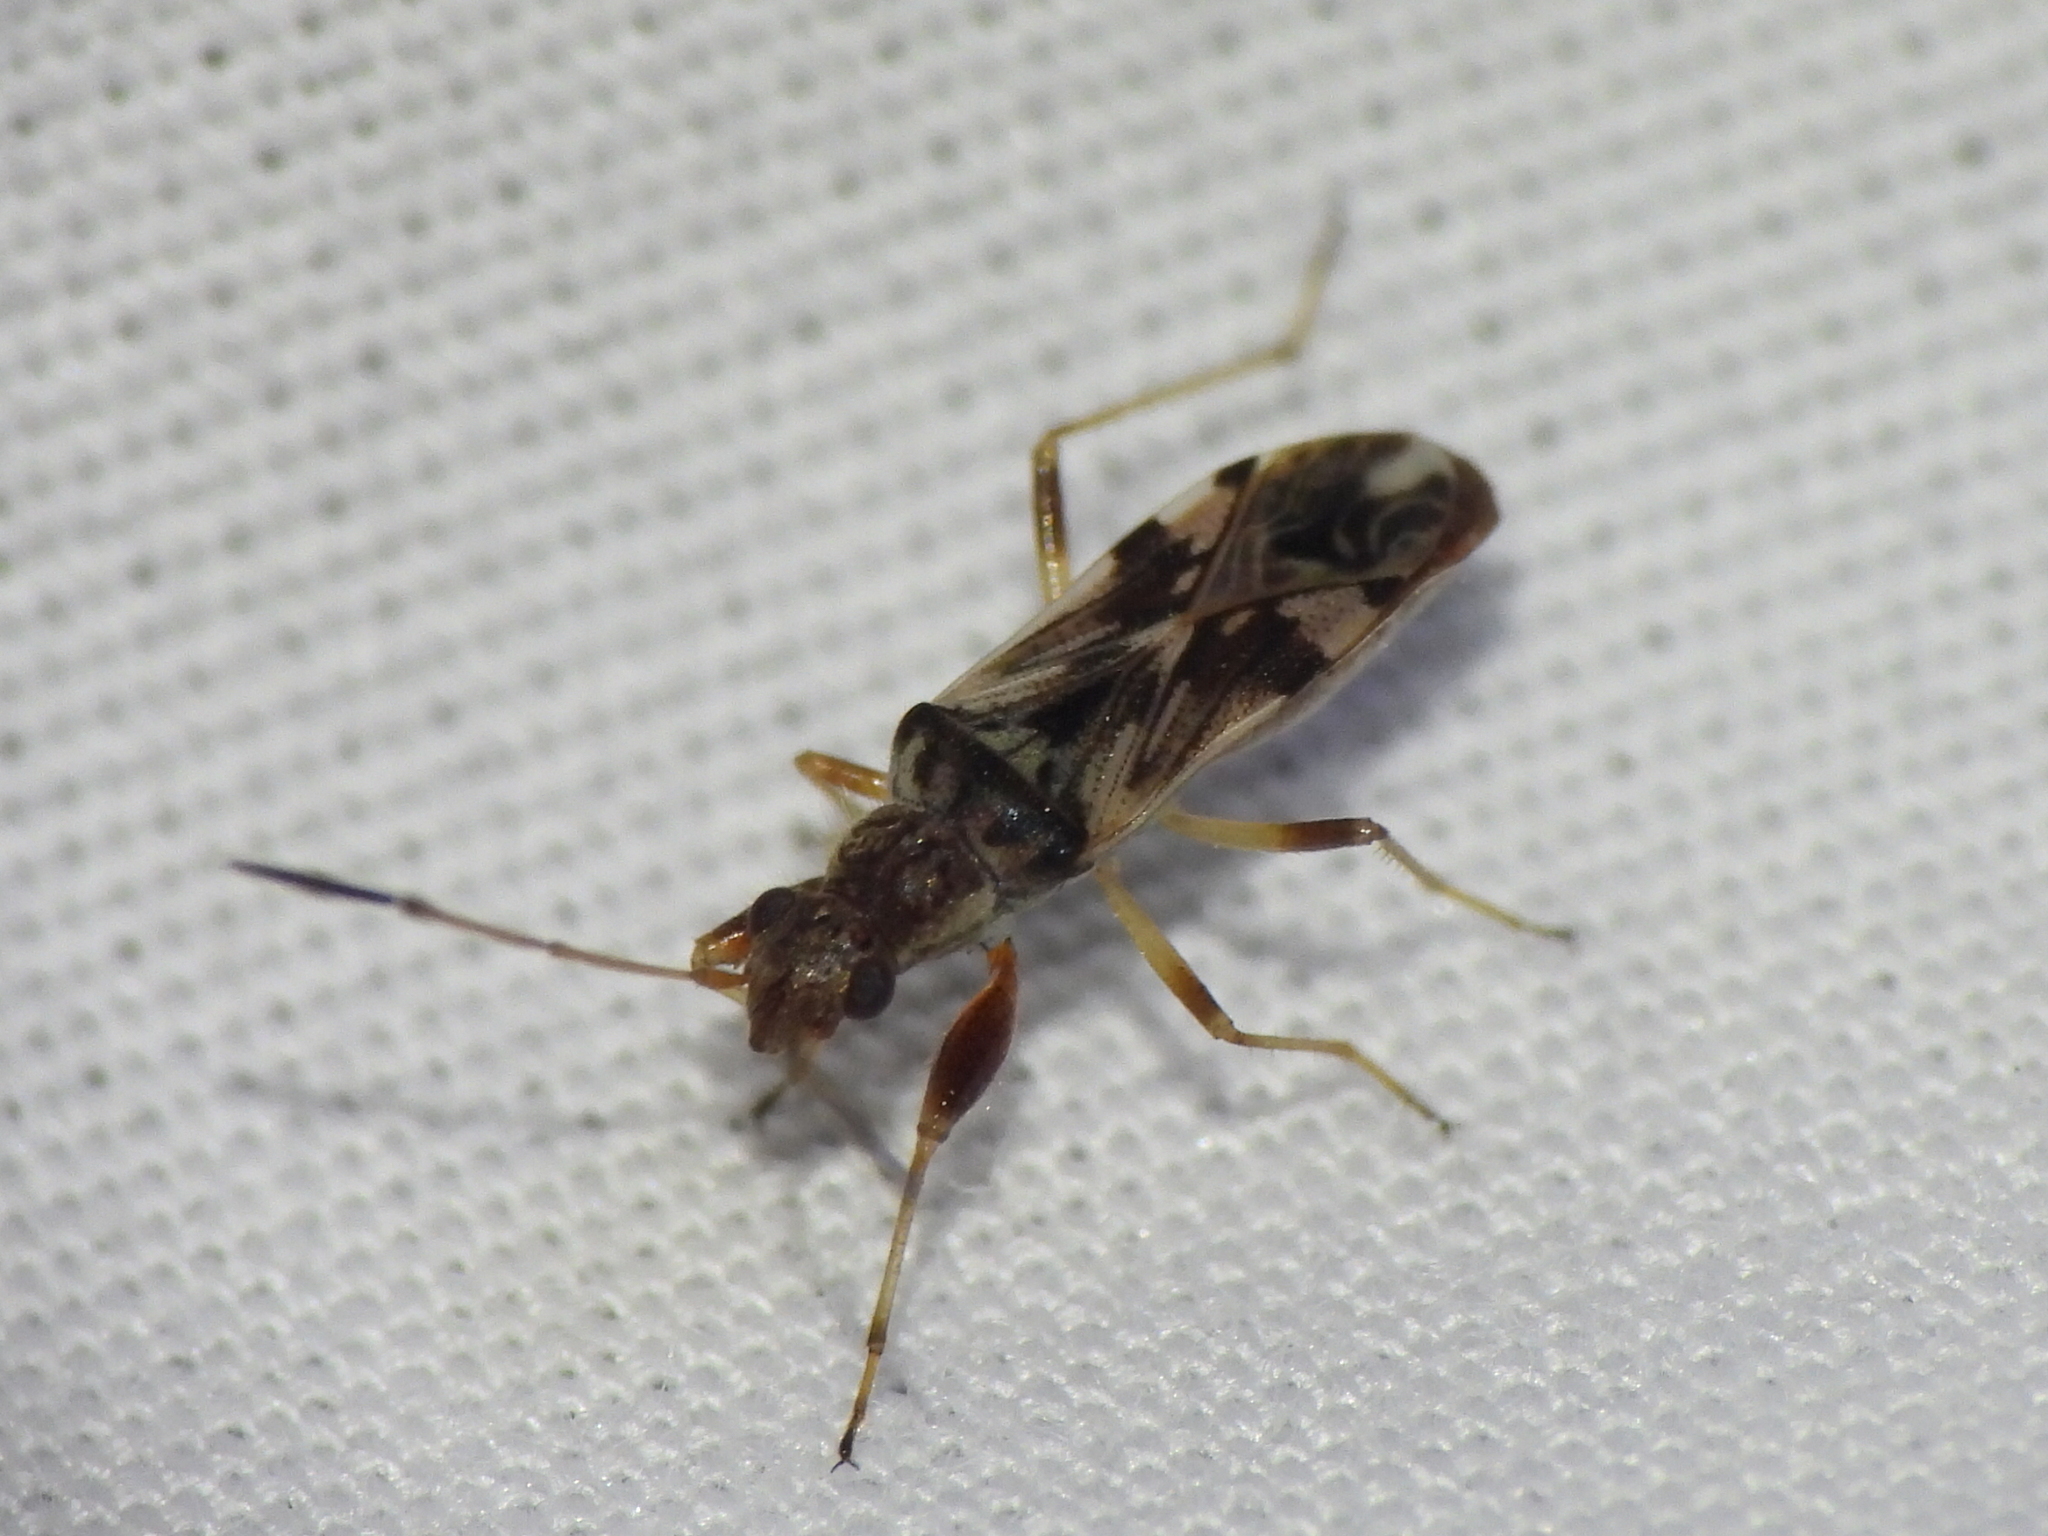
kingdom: Animalia
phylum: Arthropoda
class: Insecta
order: Hemiptera
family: Rhyparochromidae
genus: Neopamera
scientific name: Neopamera bilobata
